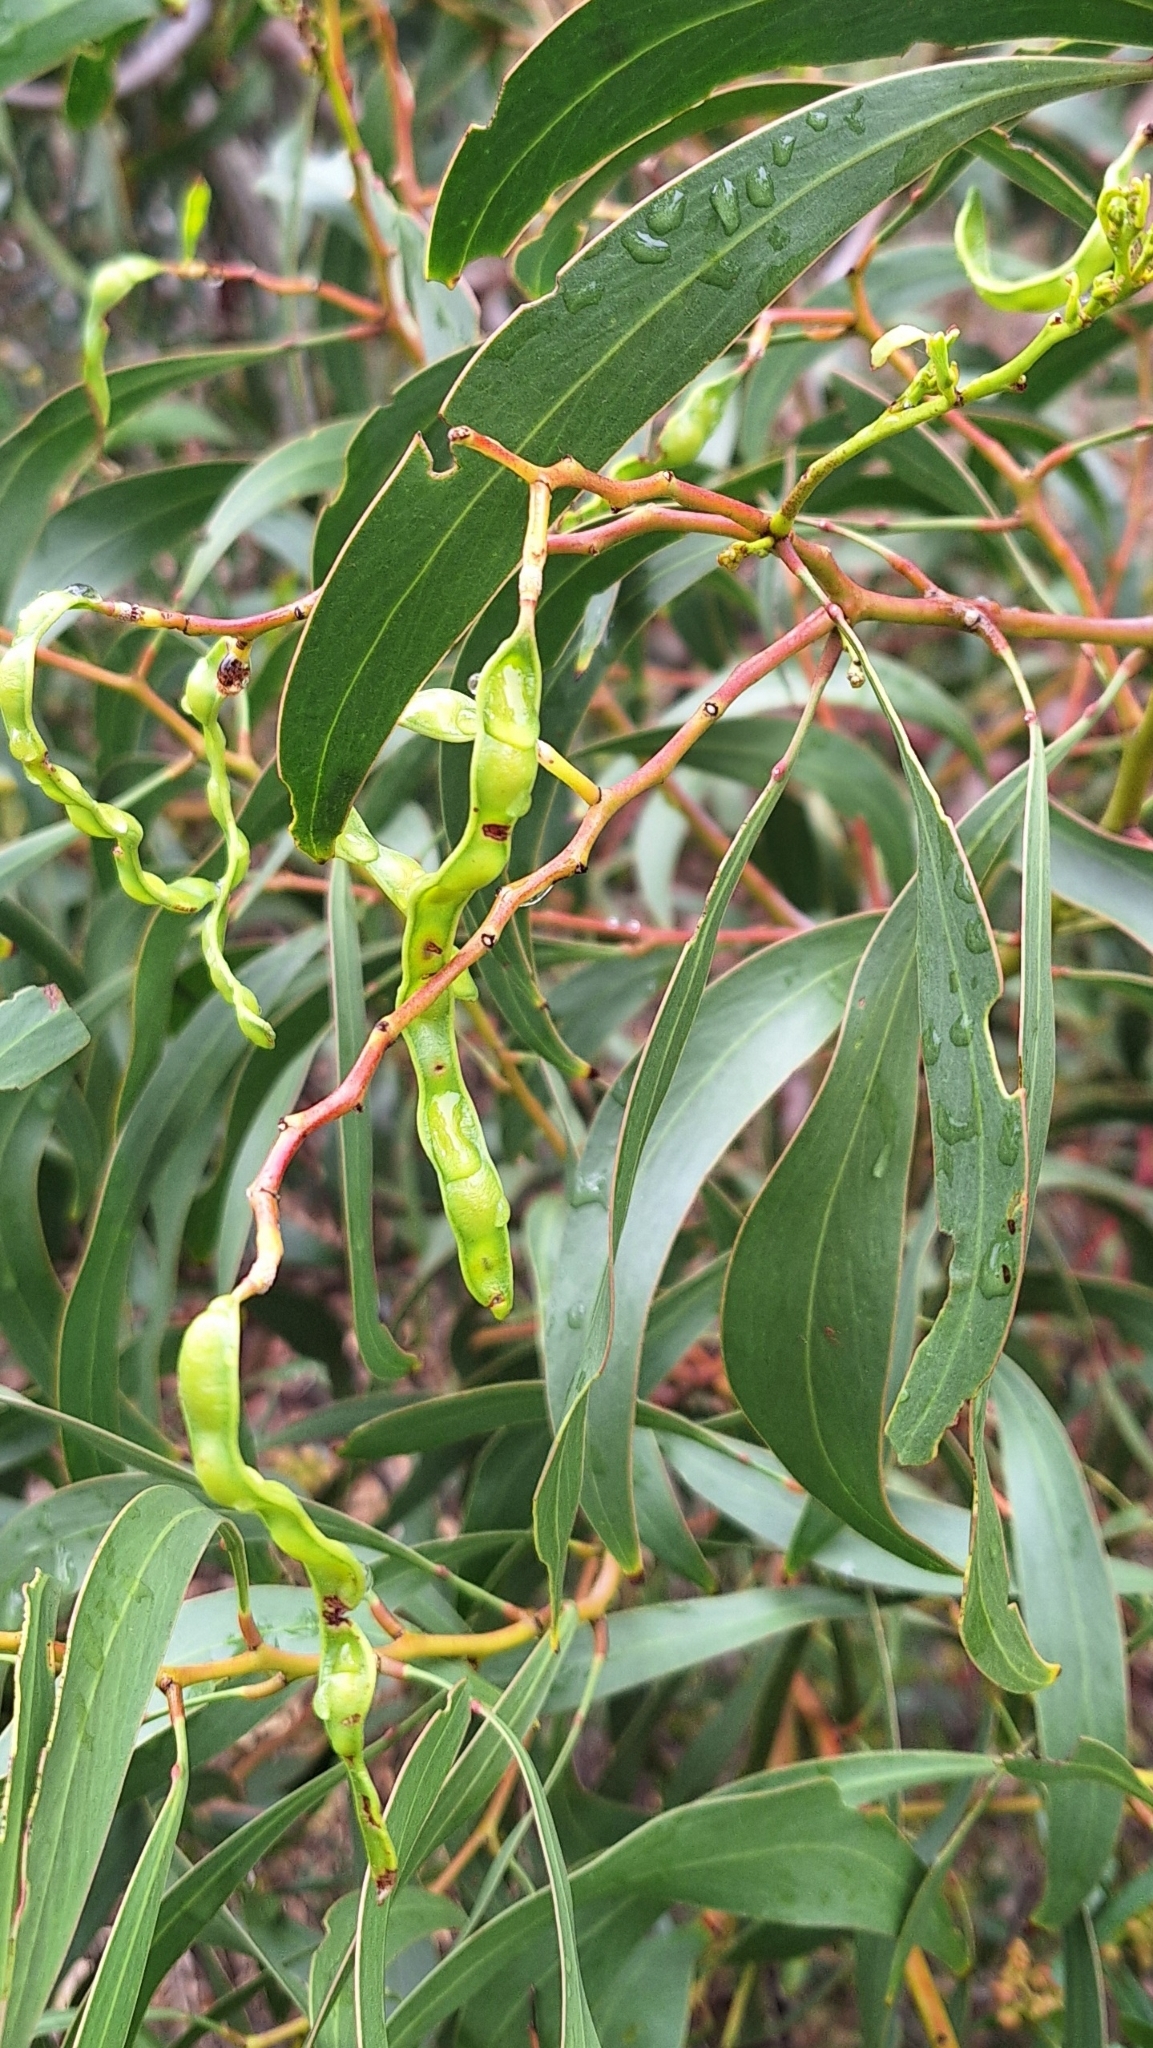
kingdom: Plantae
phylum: Tracheophyta
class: Magnoliopsida
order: Fabales
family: Fabaceae
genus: Acacia
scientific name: Acacia pycnantha
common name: Golden wattle
